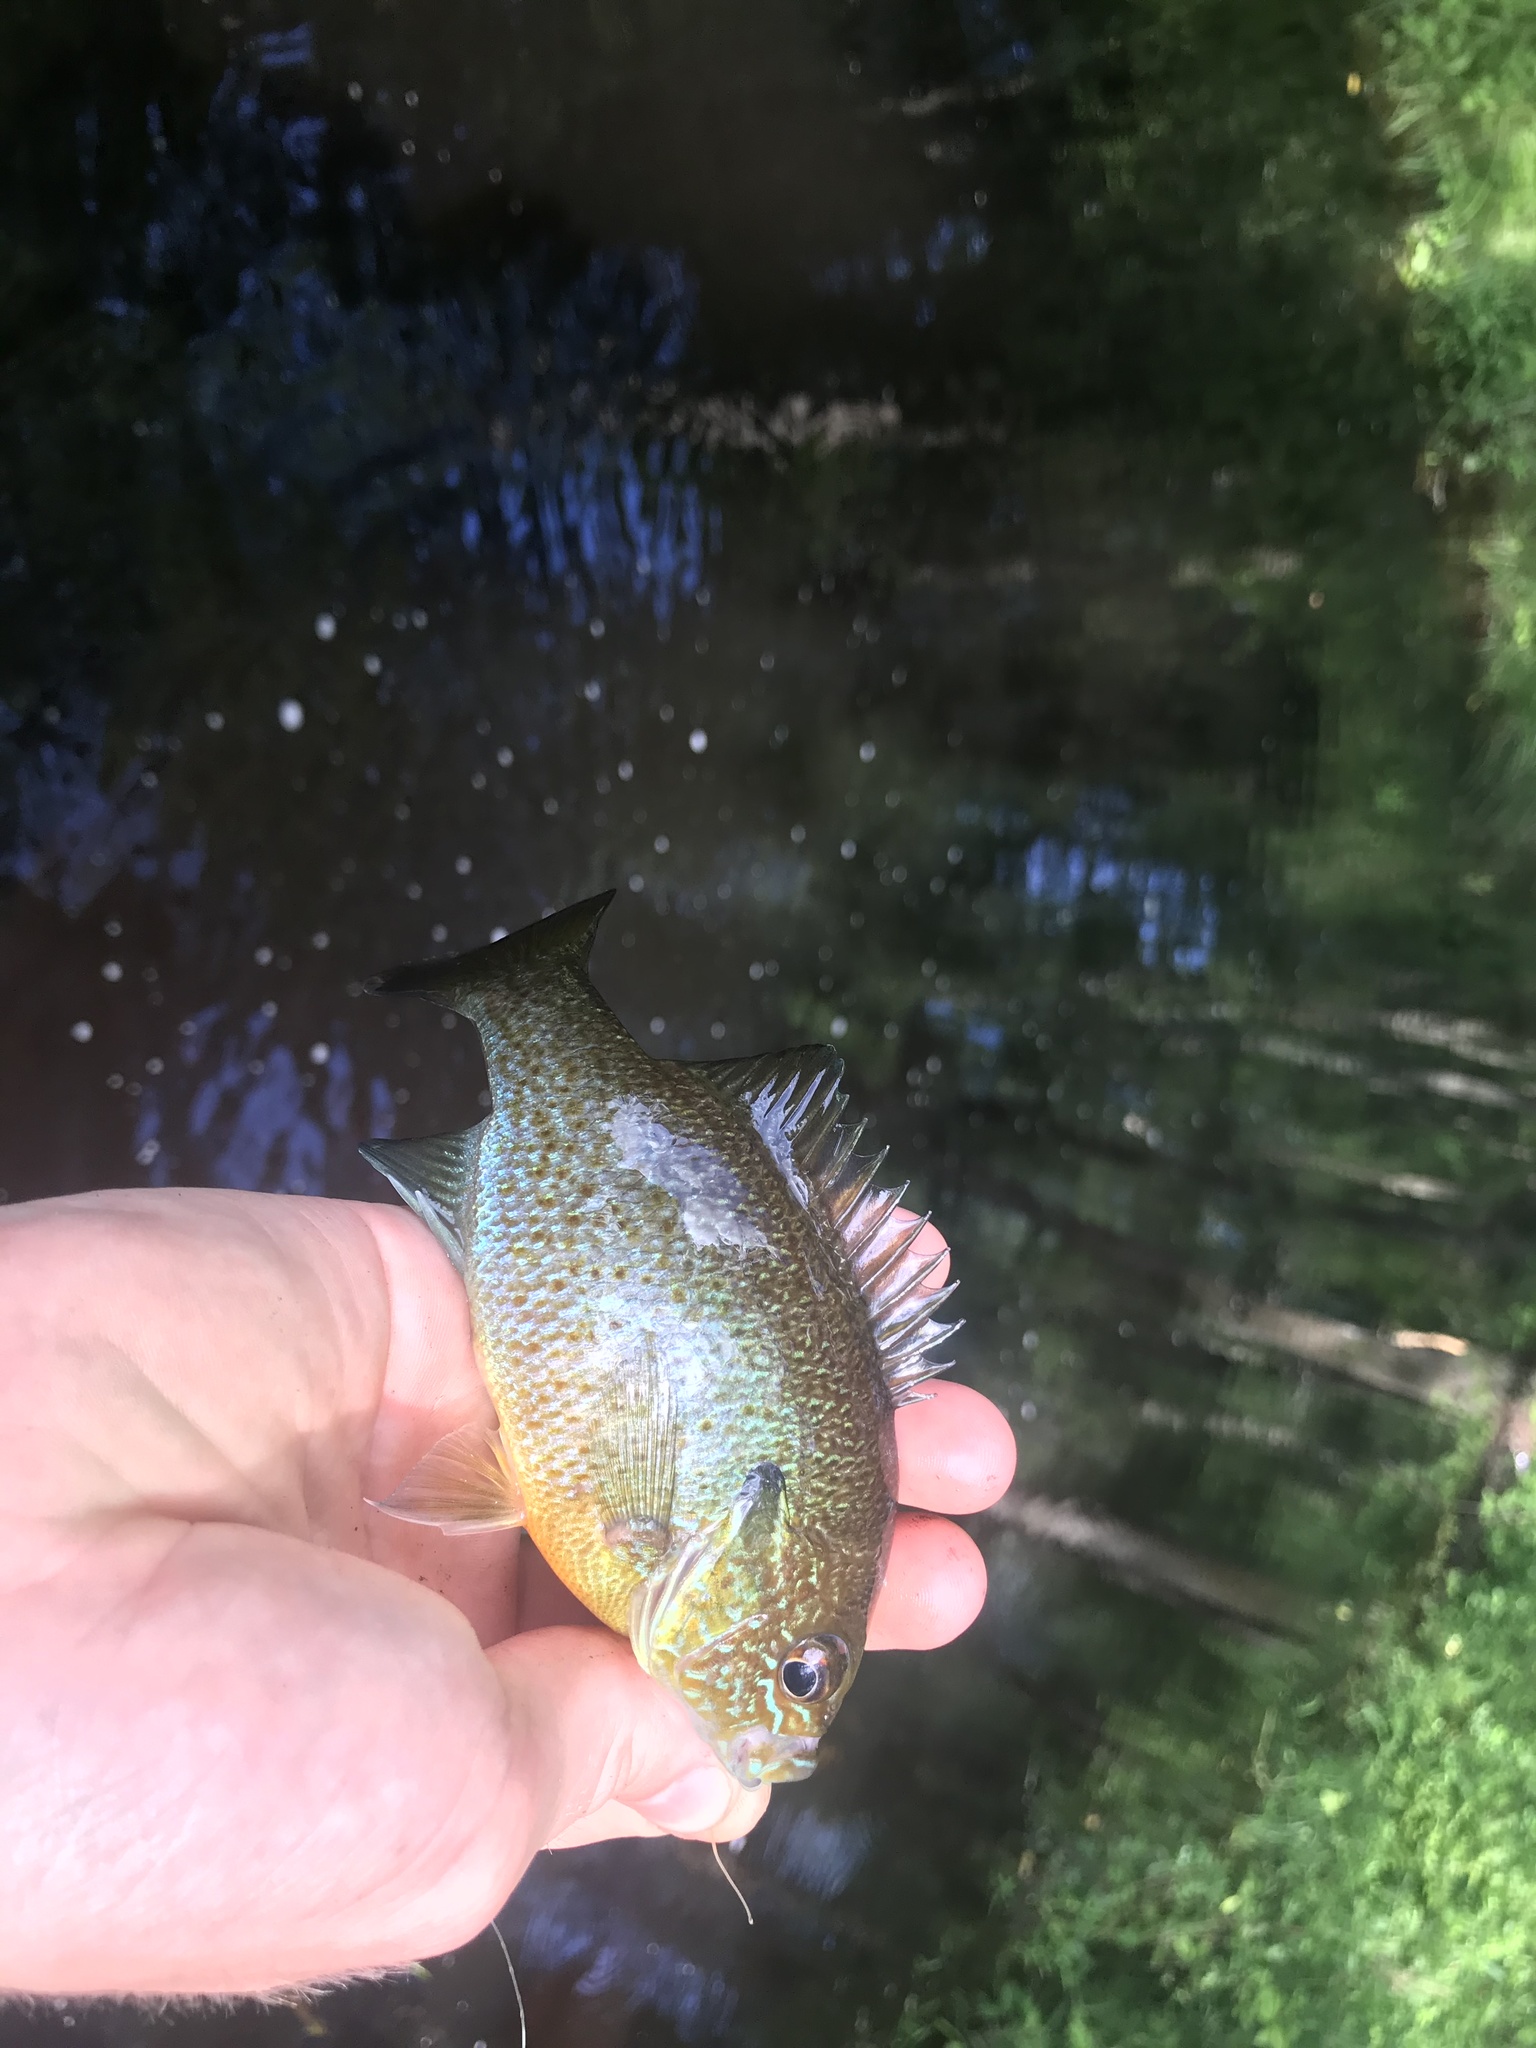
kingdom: Animalia
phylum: Chordata
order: Perciformes
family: Centrarchidae
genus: Lepomis
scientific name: Lepomis auritus
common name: Redbreast sunfish
